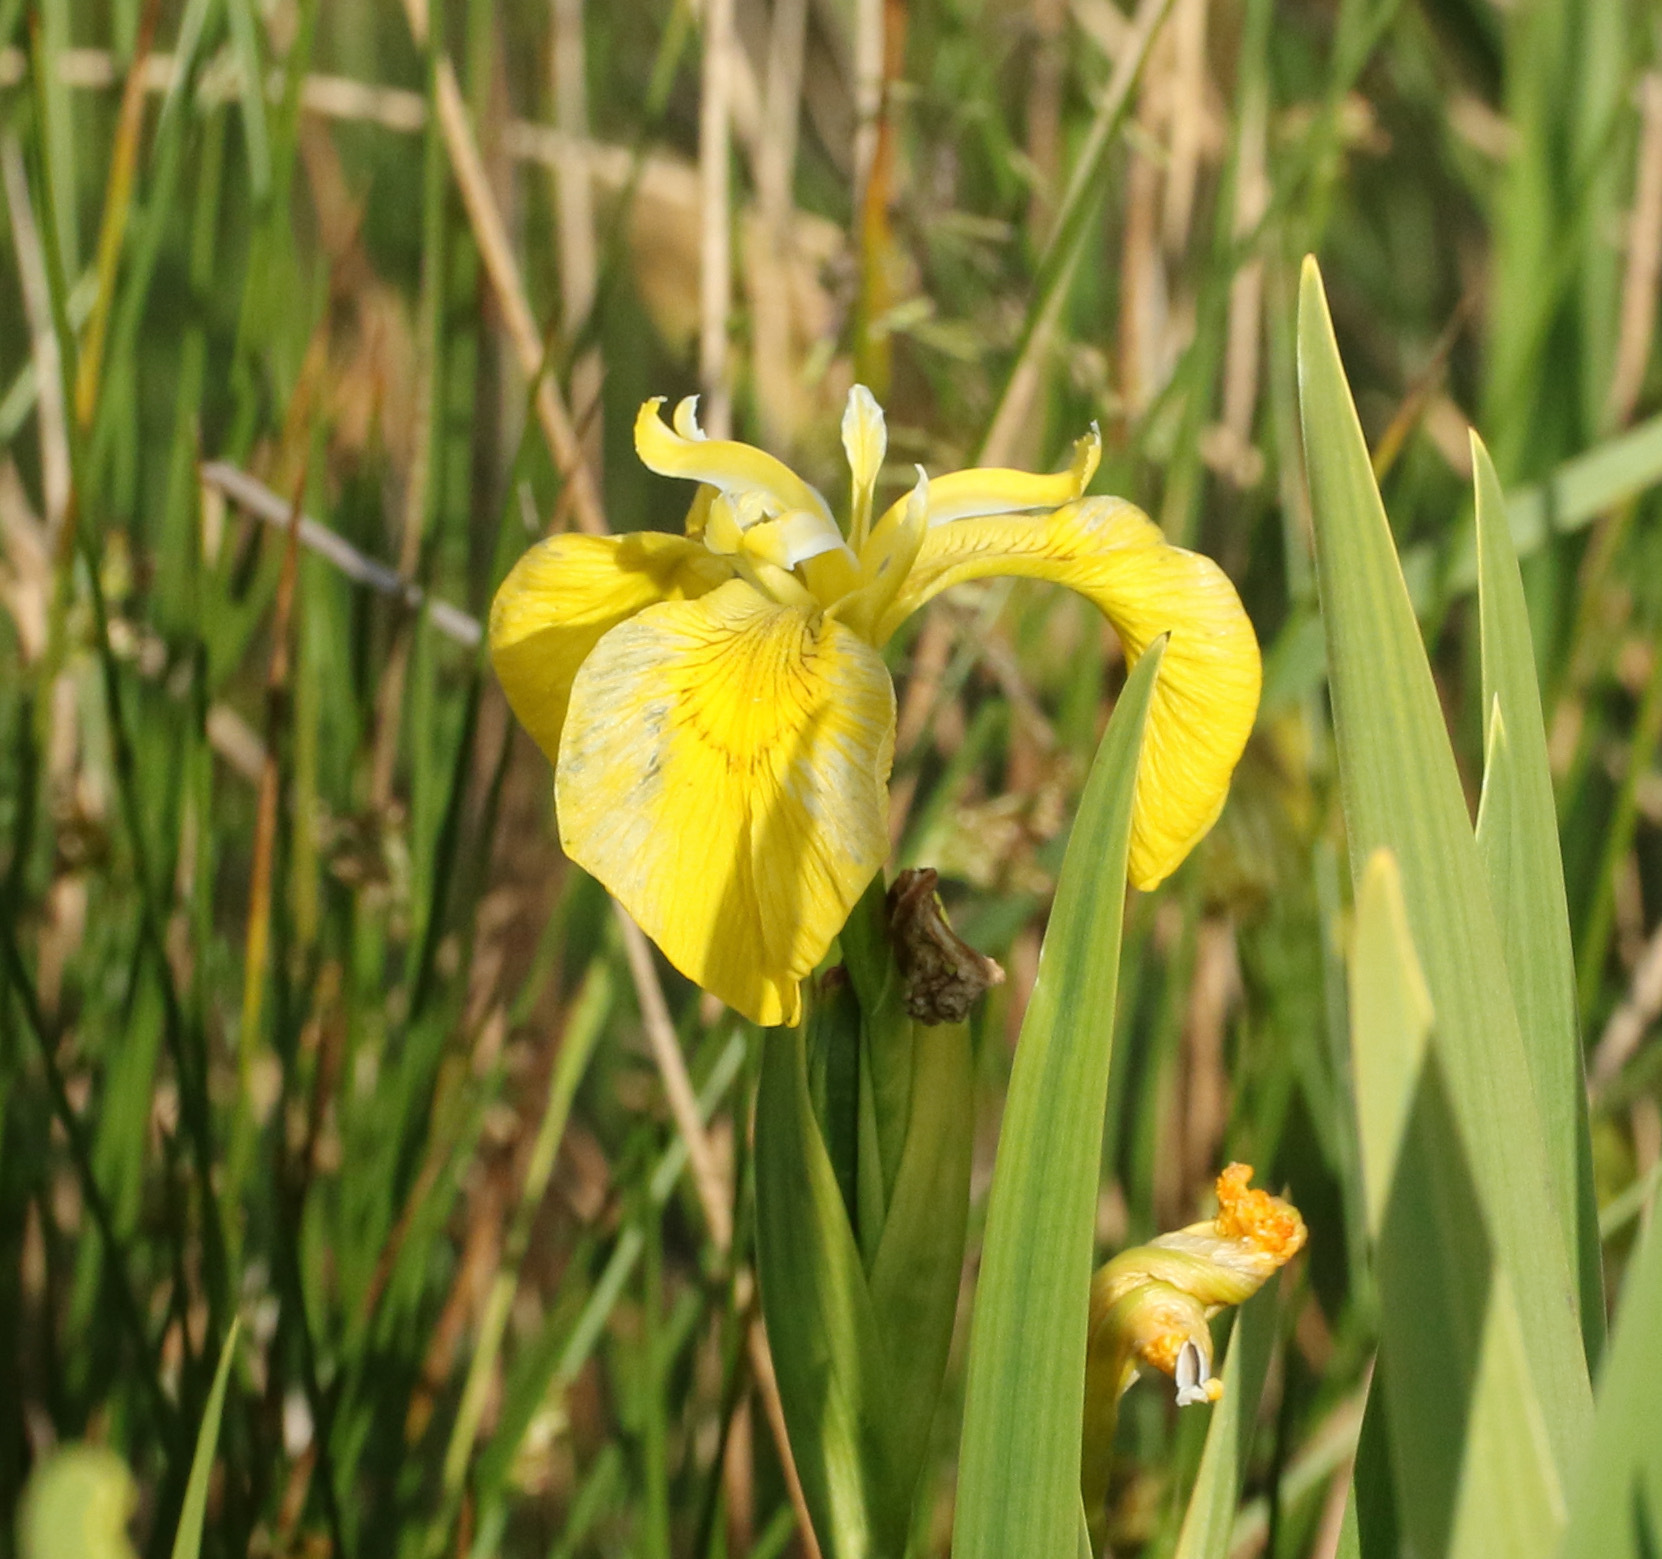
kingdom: Plantae
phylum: Tracheophyta
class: Liliopsida
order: Asparagales
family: Iridaceae
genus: Iris
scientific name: Iris pseudacorus
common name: Yellow flag
